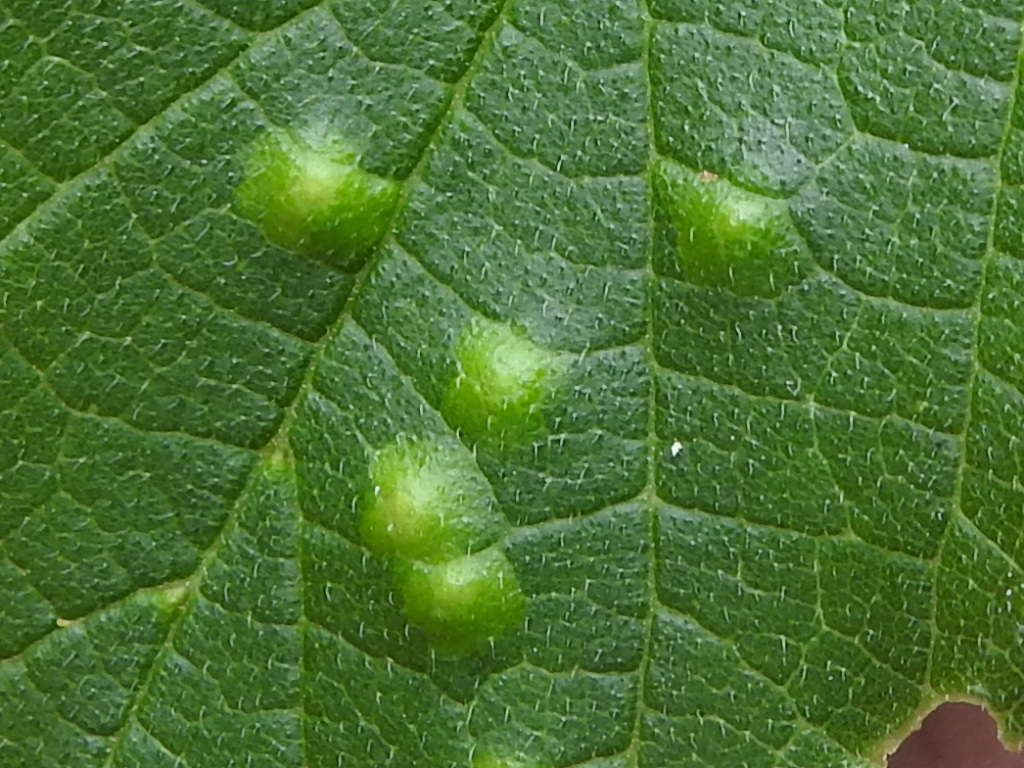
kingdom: Animalia
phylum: Arthropoda
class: Insecta
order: Diptera
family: Cecidomyiidae
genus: Celticecis
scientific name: Celticecis capsularis
